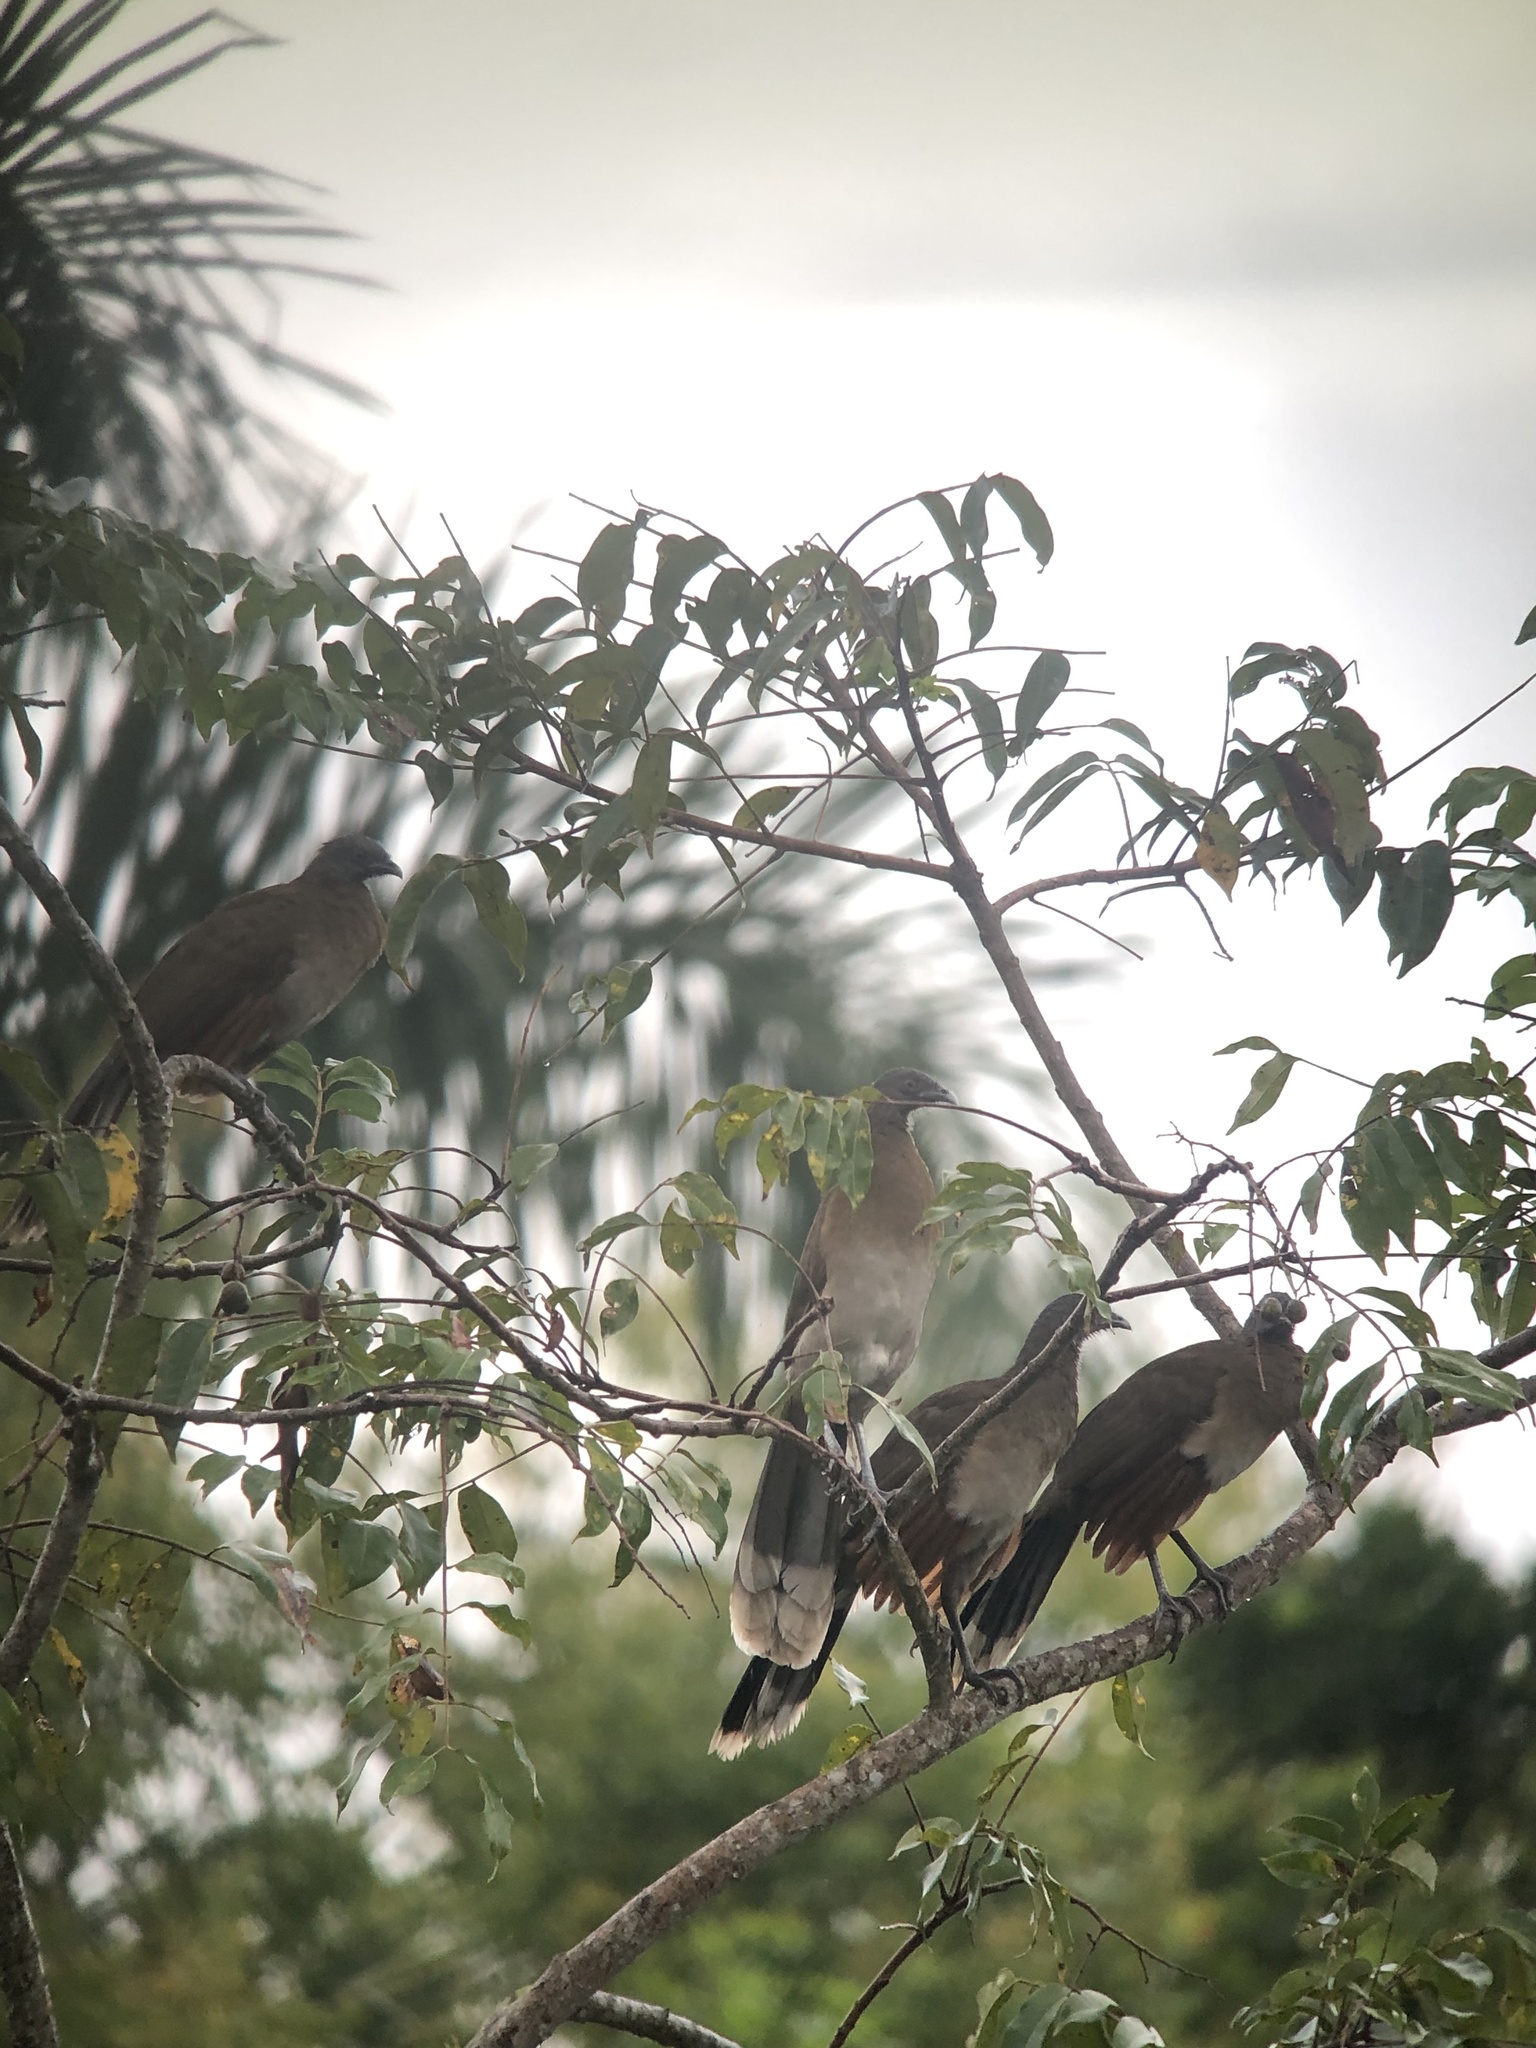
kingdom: Animalia
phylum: Chordata
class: Aves
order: Galliformes
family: Cracidae
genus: Ortalis
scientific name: Ortalis cinereiceps
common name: Grey-headed chachalaca
